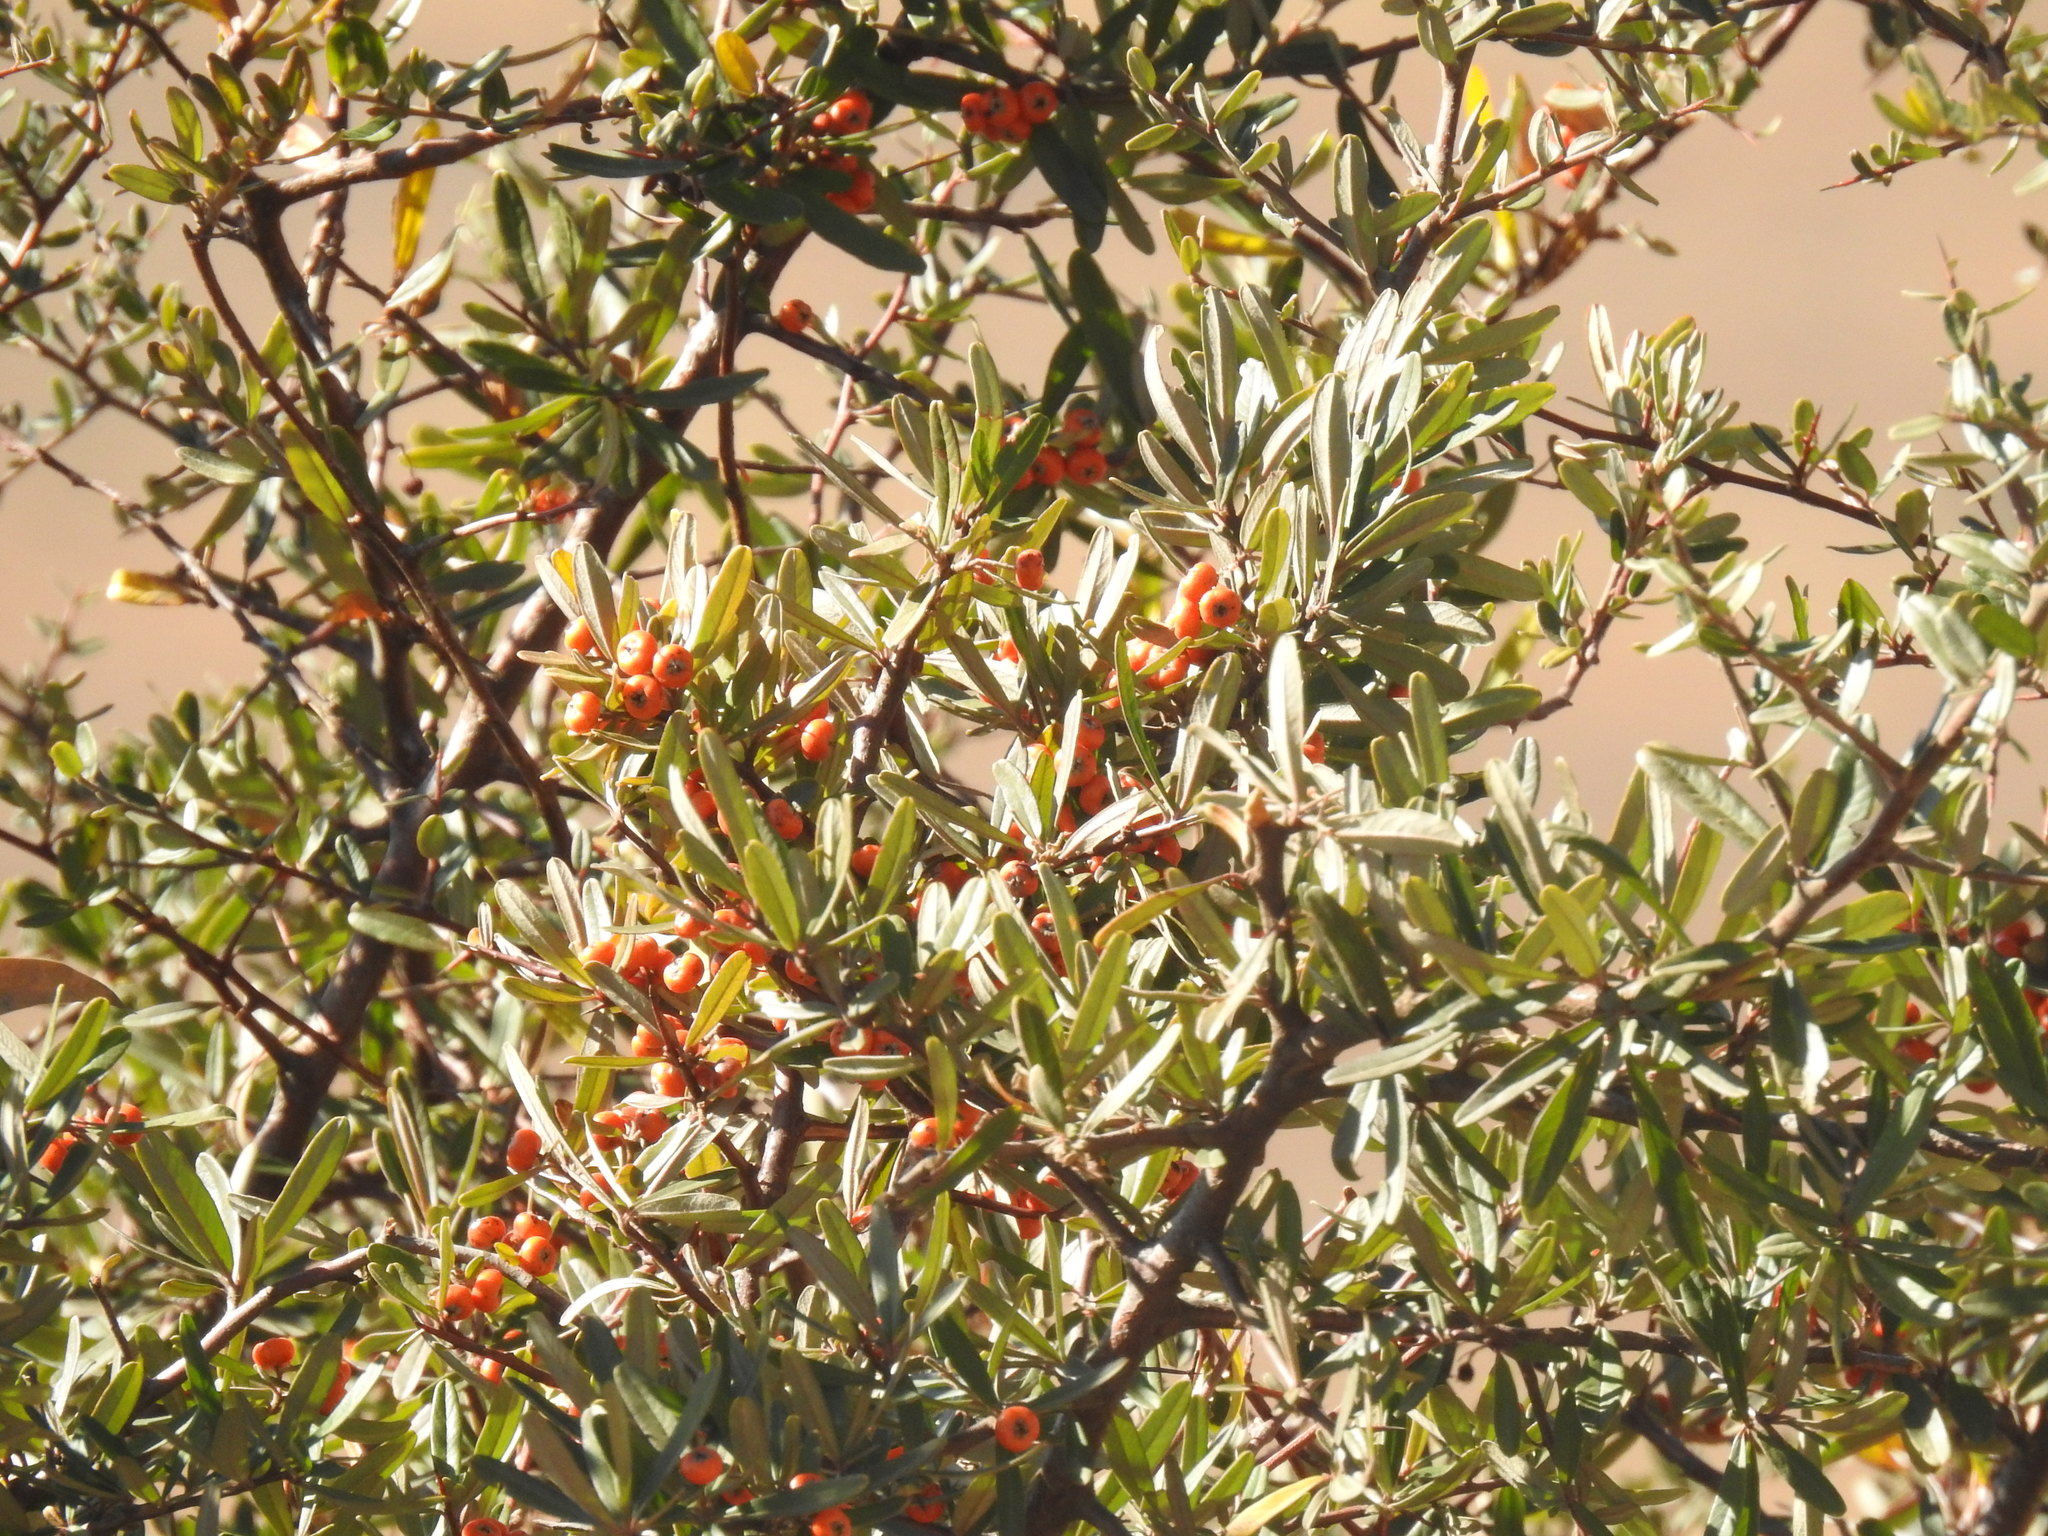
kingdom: Plantae
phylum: Tracheophyta
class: Magnoliopsida
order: Rosales
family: Rosaceae
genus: Pyracantha
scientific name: Pyracantha angustifolia
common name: Narrowleaf firethorn
